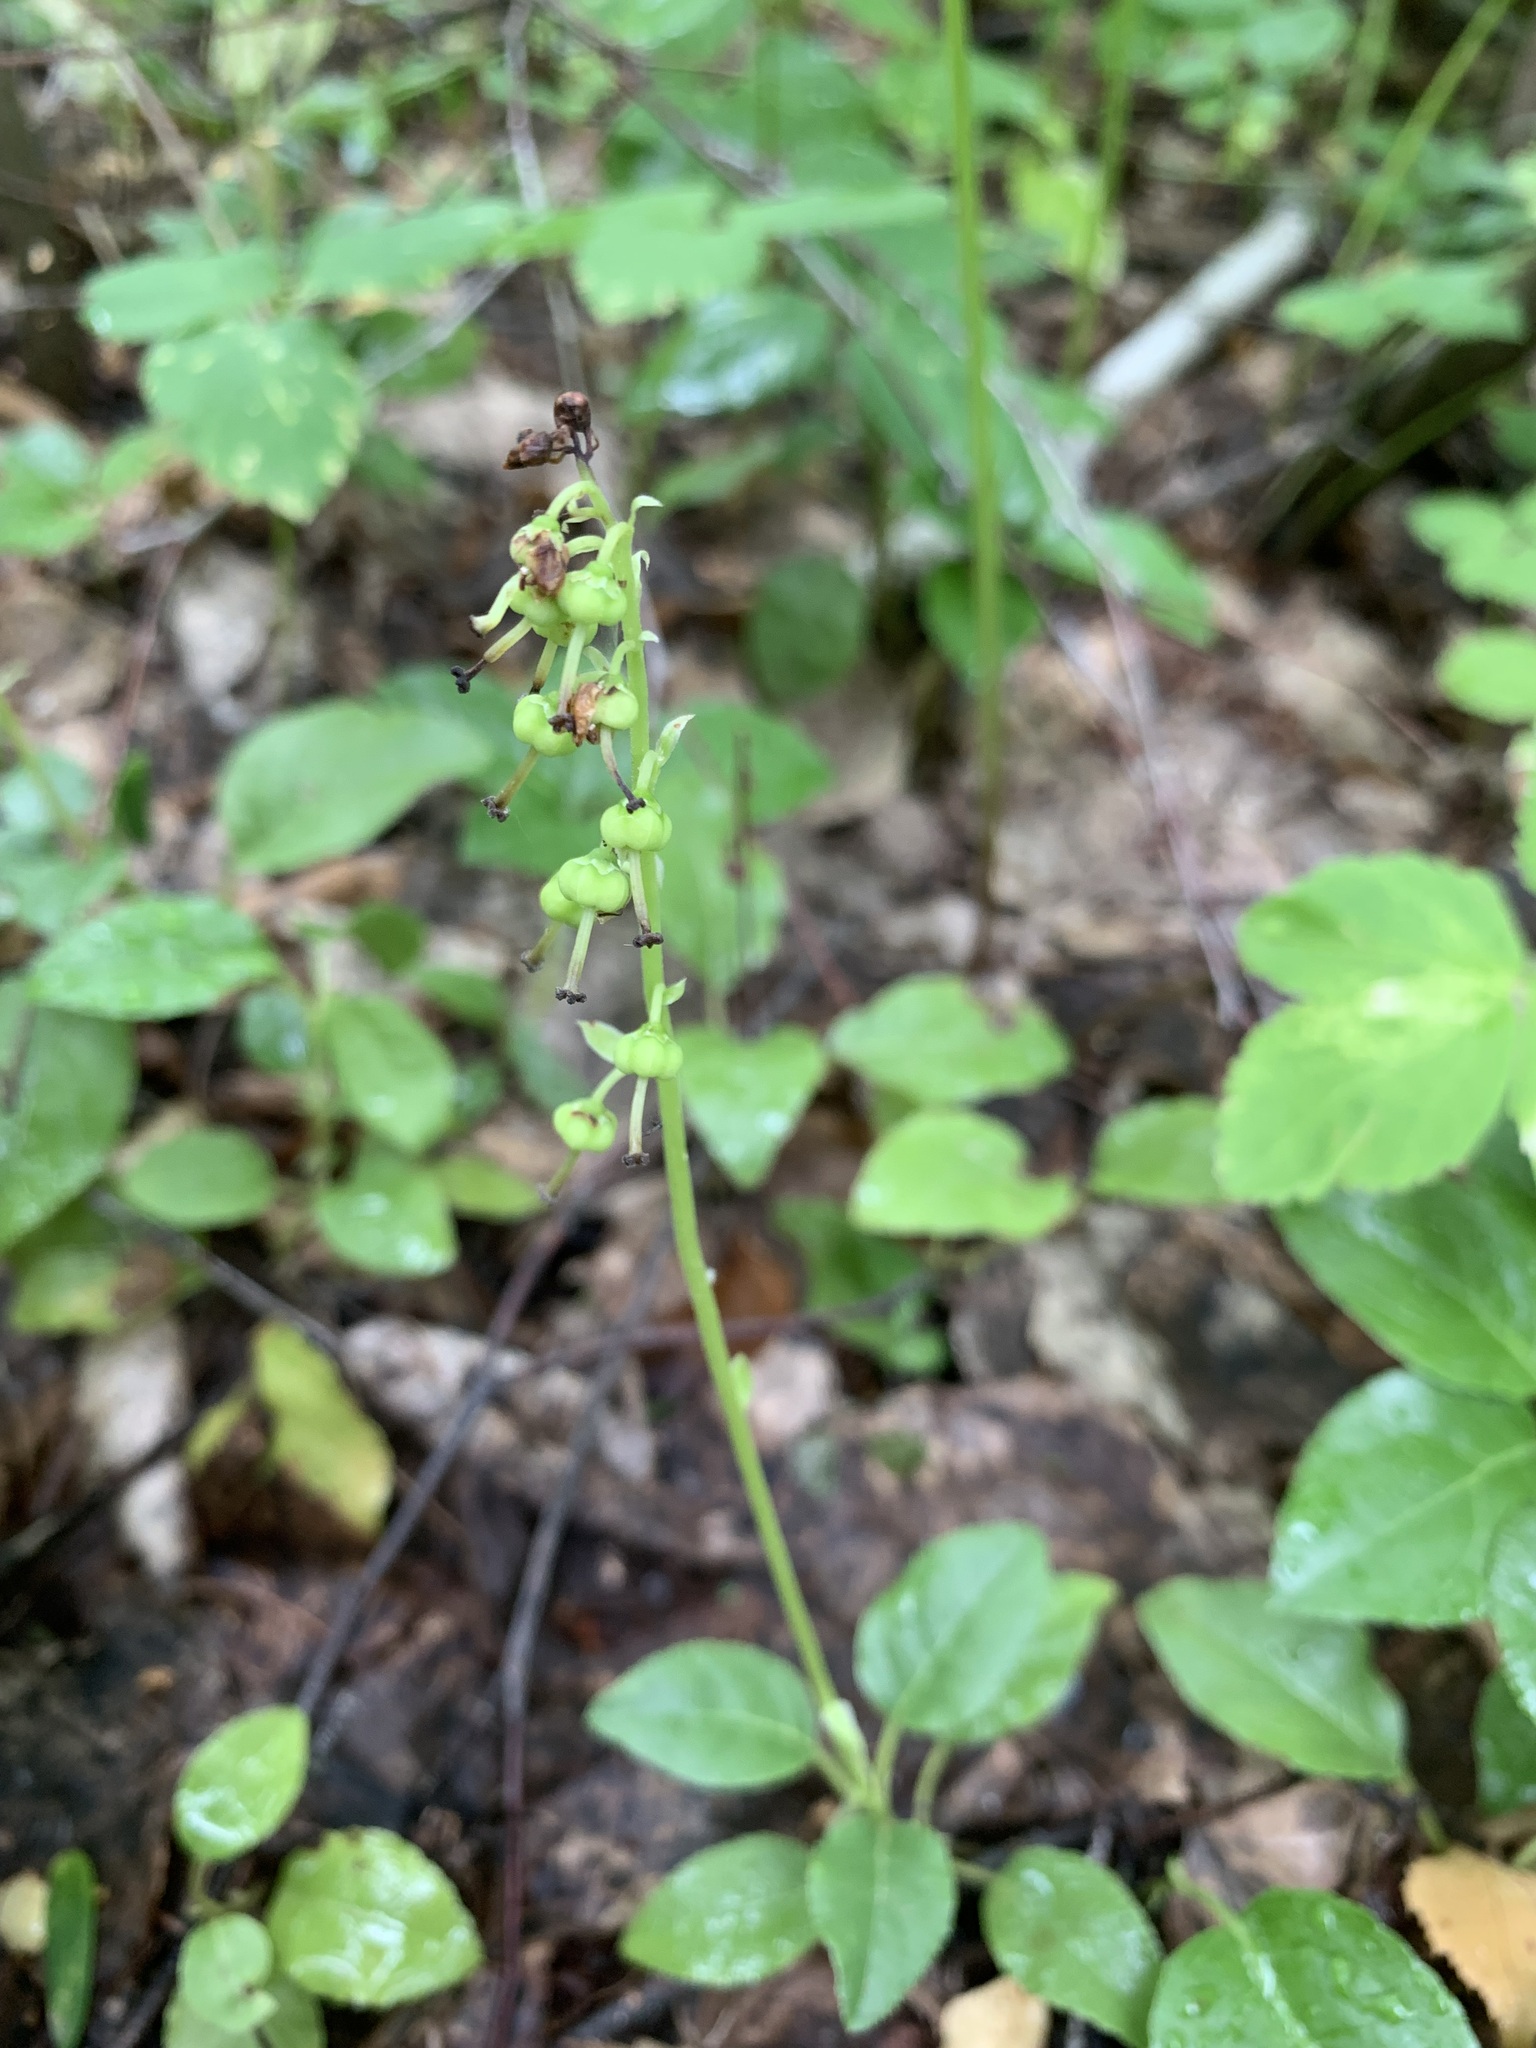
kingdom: Plantae
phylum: Tracheophyta
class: Magnoliopsida
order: Ericales
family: Ericaceae
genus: Orthilia
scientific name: Orthilia secunda
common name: One-sided orthilia
